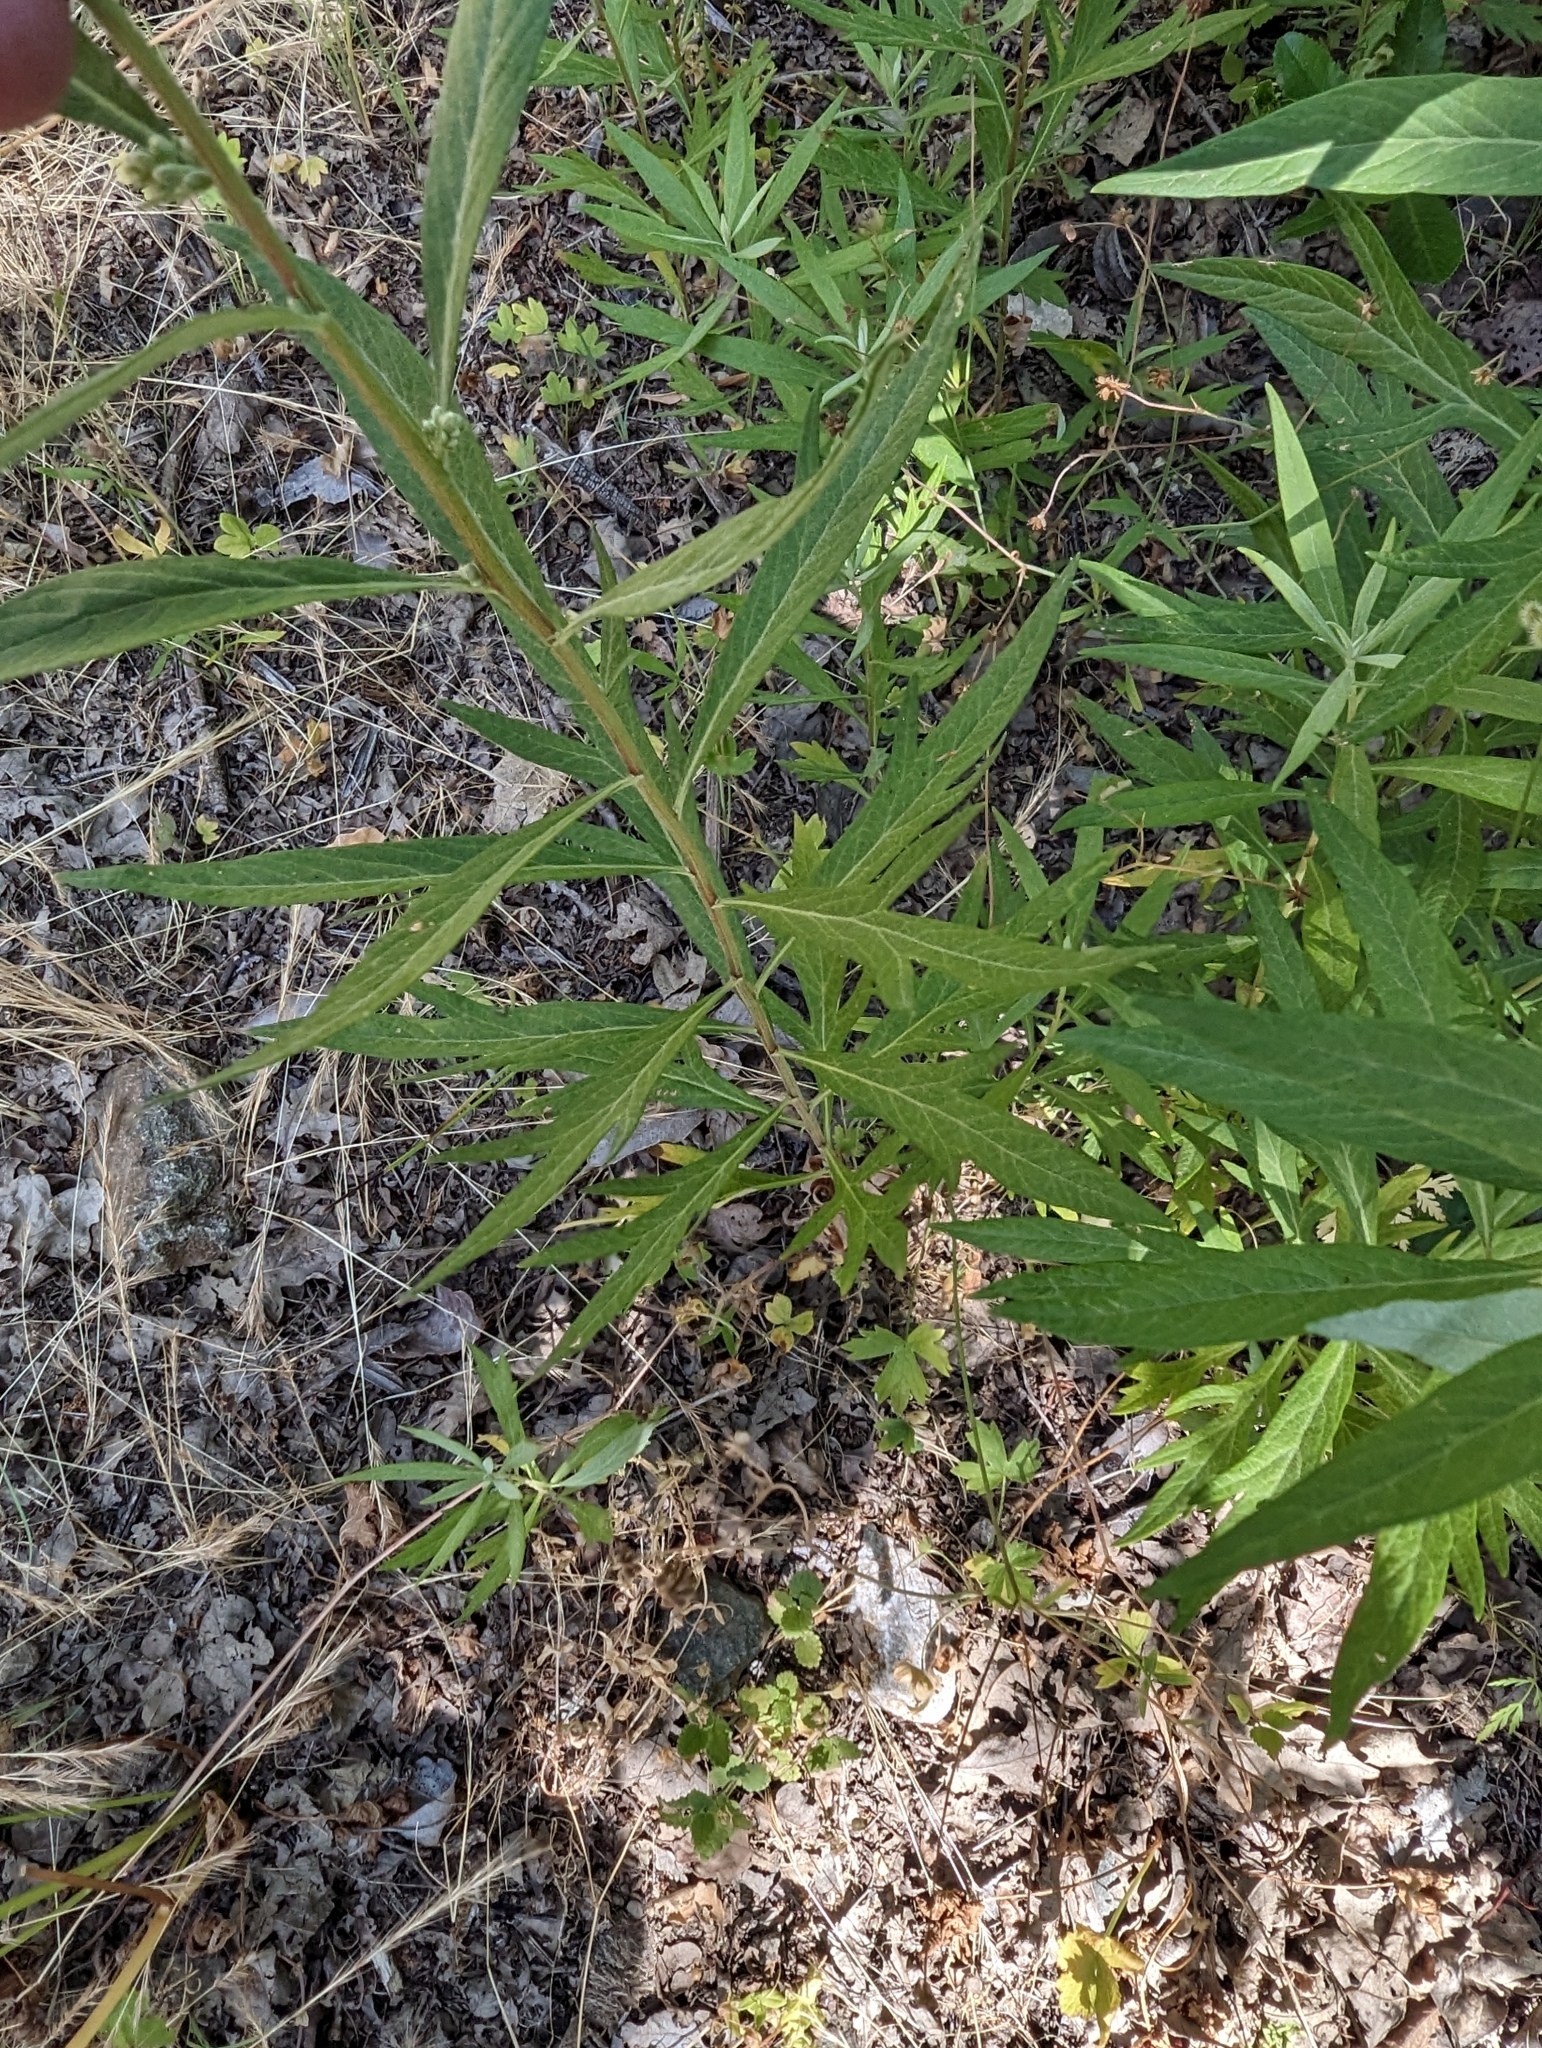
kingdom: Plantae
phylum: Tracheophyta
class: Magnoliopsida
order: Asterales
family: Asteraceae
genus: Artemisia
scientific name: Artemisia douglasiana
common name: Northwest mugwort
